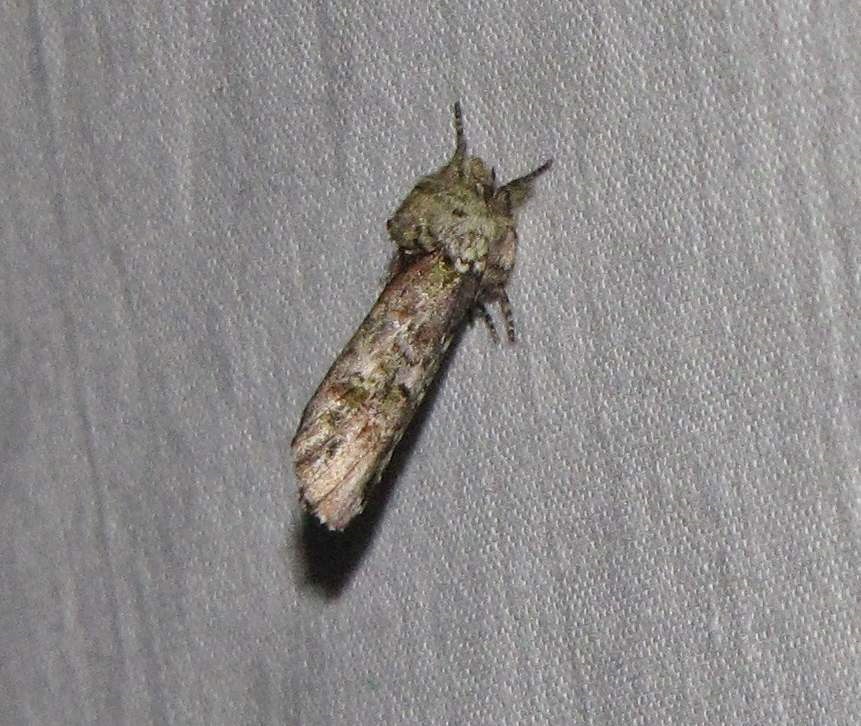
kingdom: Animalia
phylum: Arthropoda
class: Insecta
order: Lepidoptera
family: Notodontidae
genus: Schizura
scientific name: Schizura
